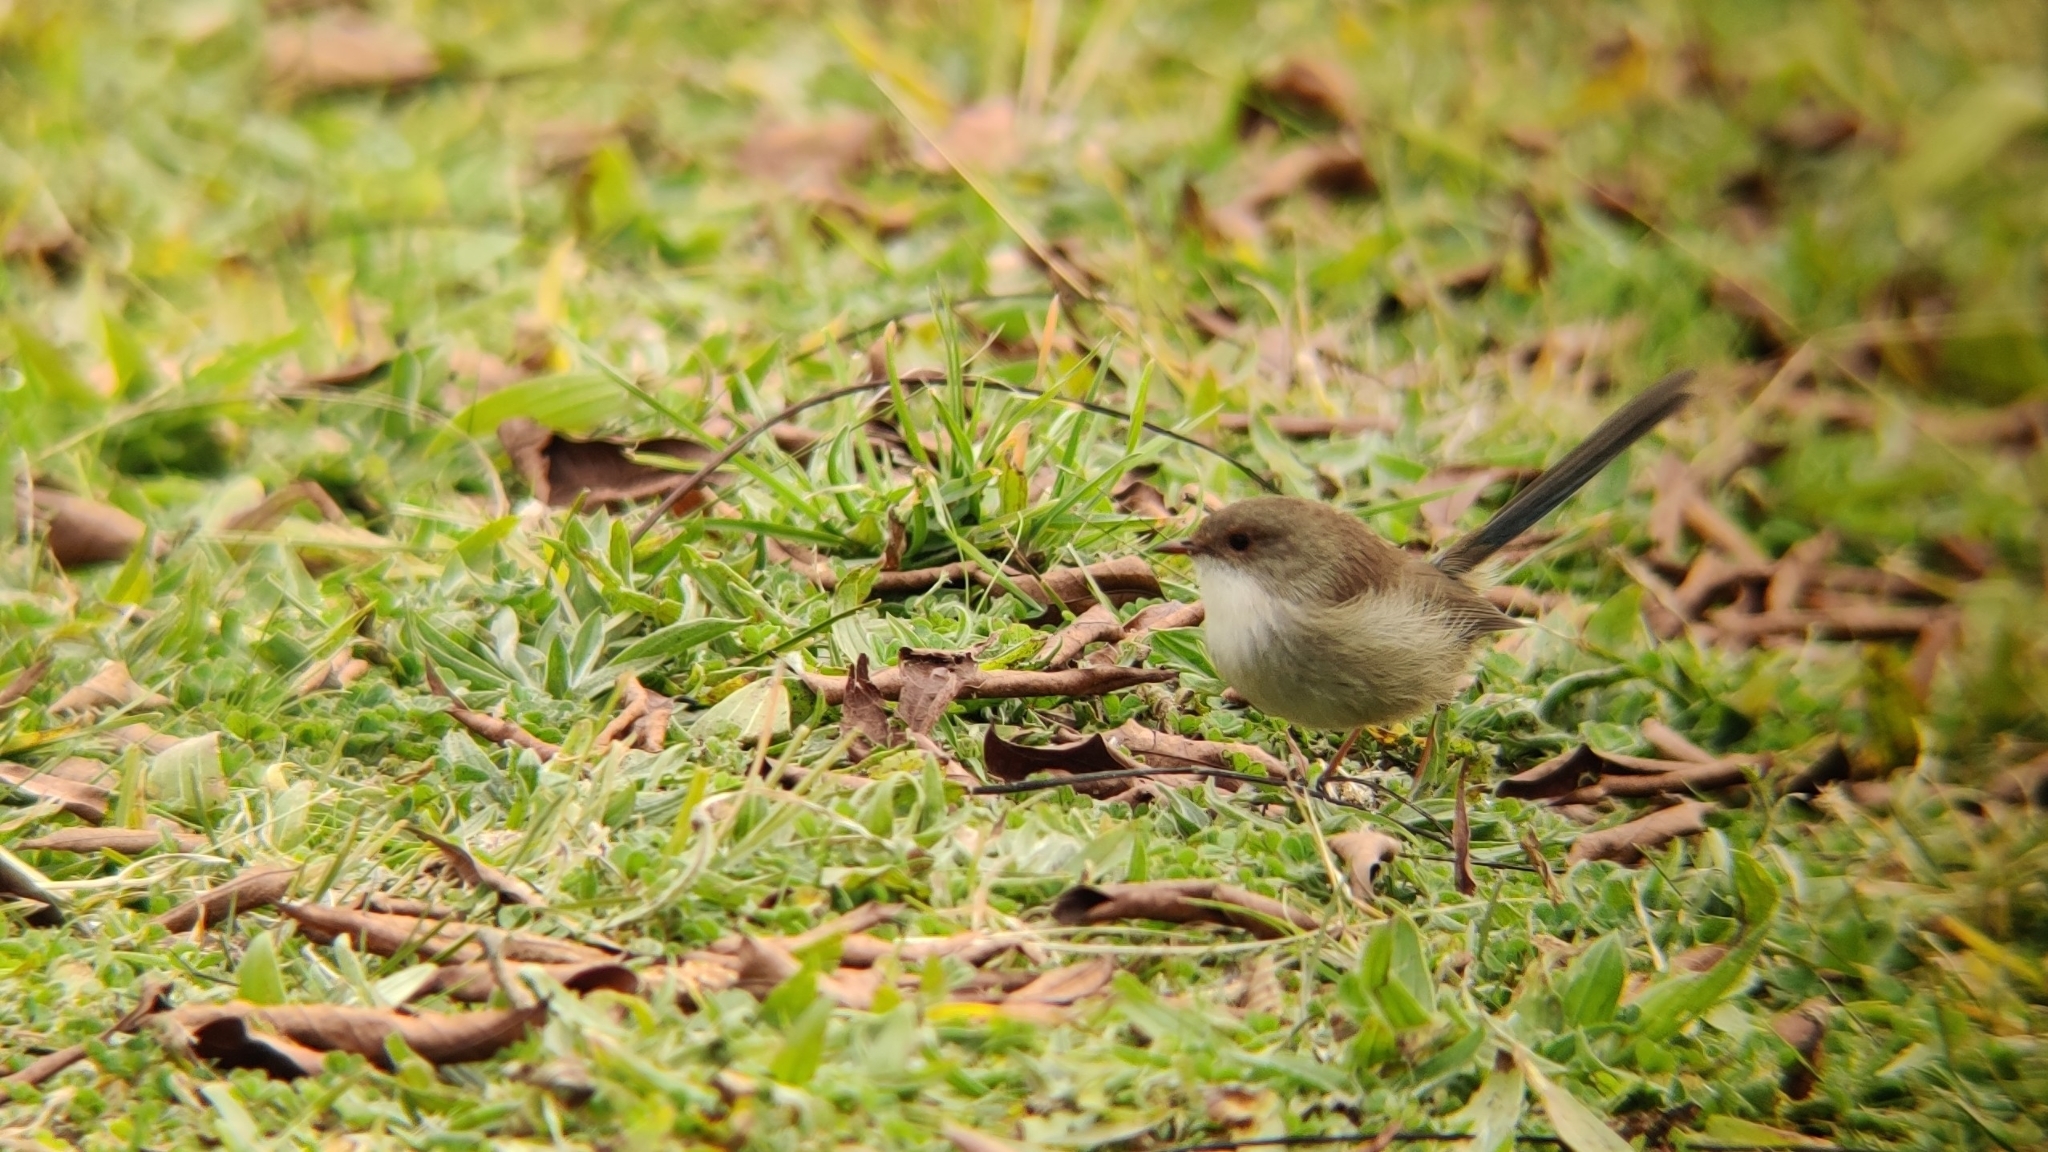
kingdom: Animalia
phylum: Chordata
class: Aves
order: Passeriformes
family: Maluridae
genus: Malurus
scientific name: Malurus cyaneus
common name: Superb fairywren
